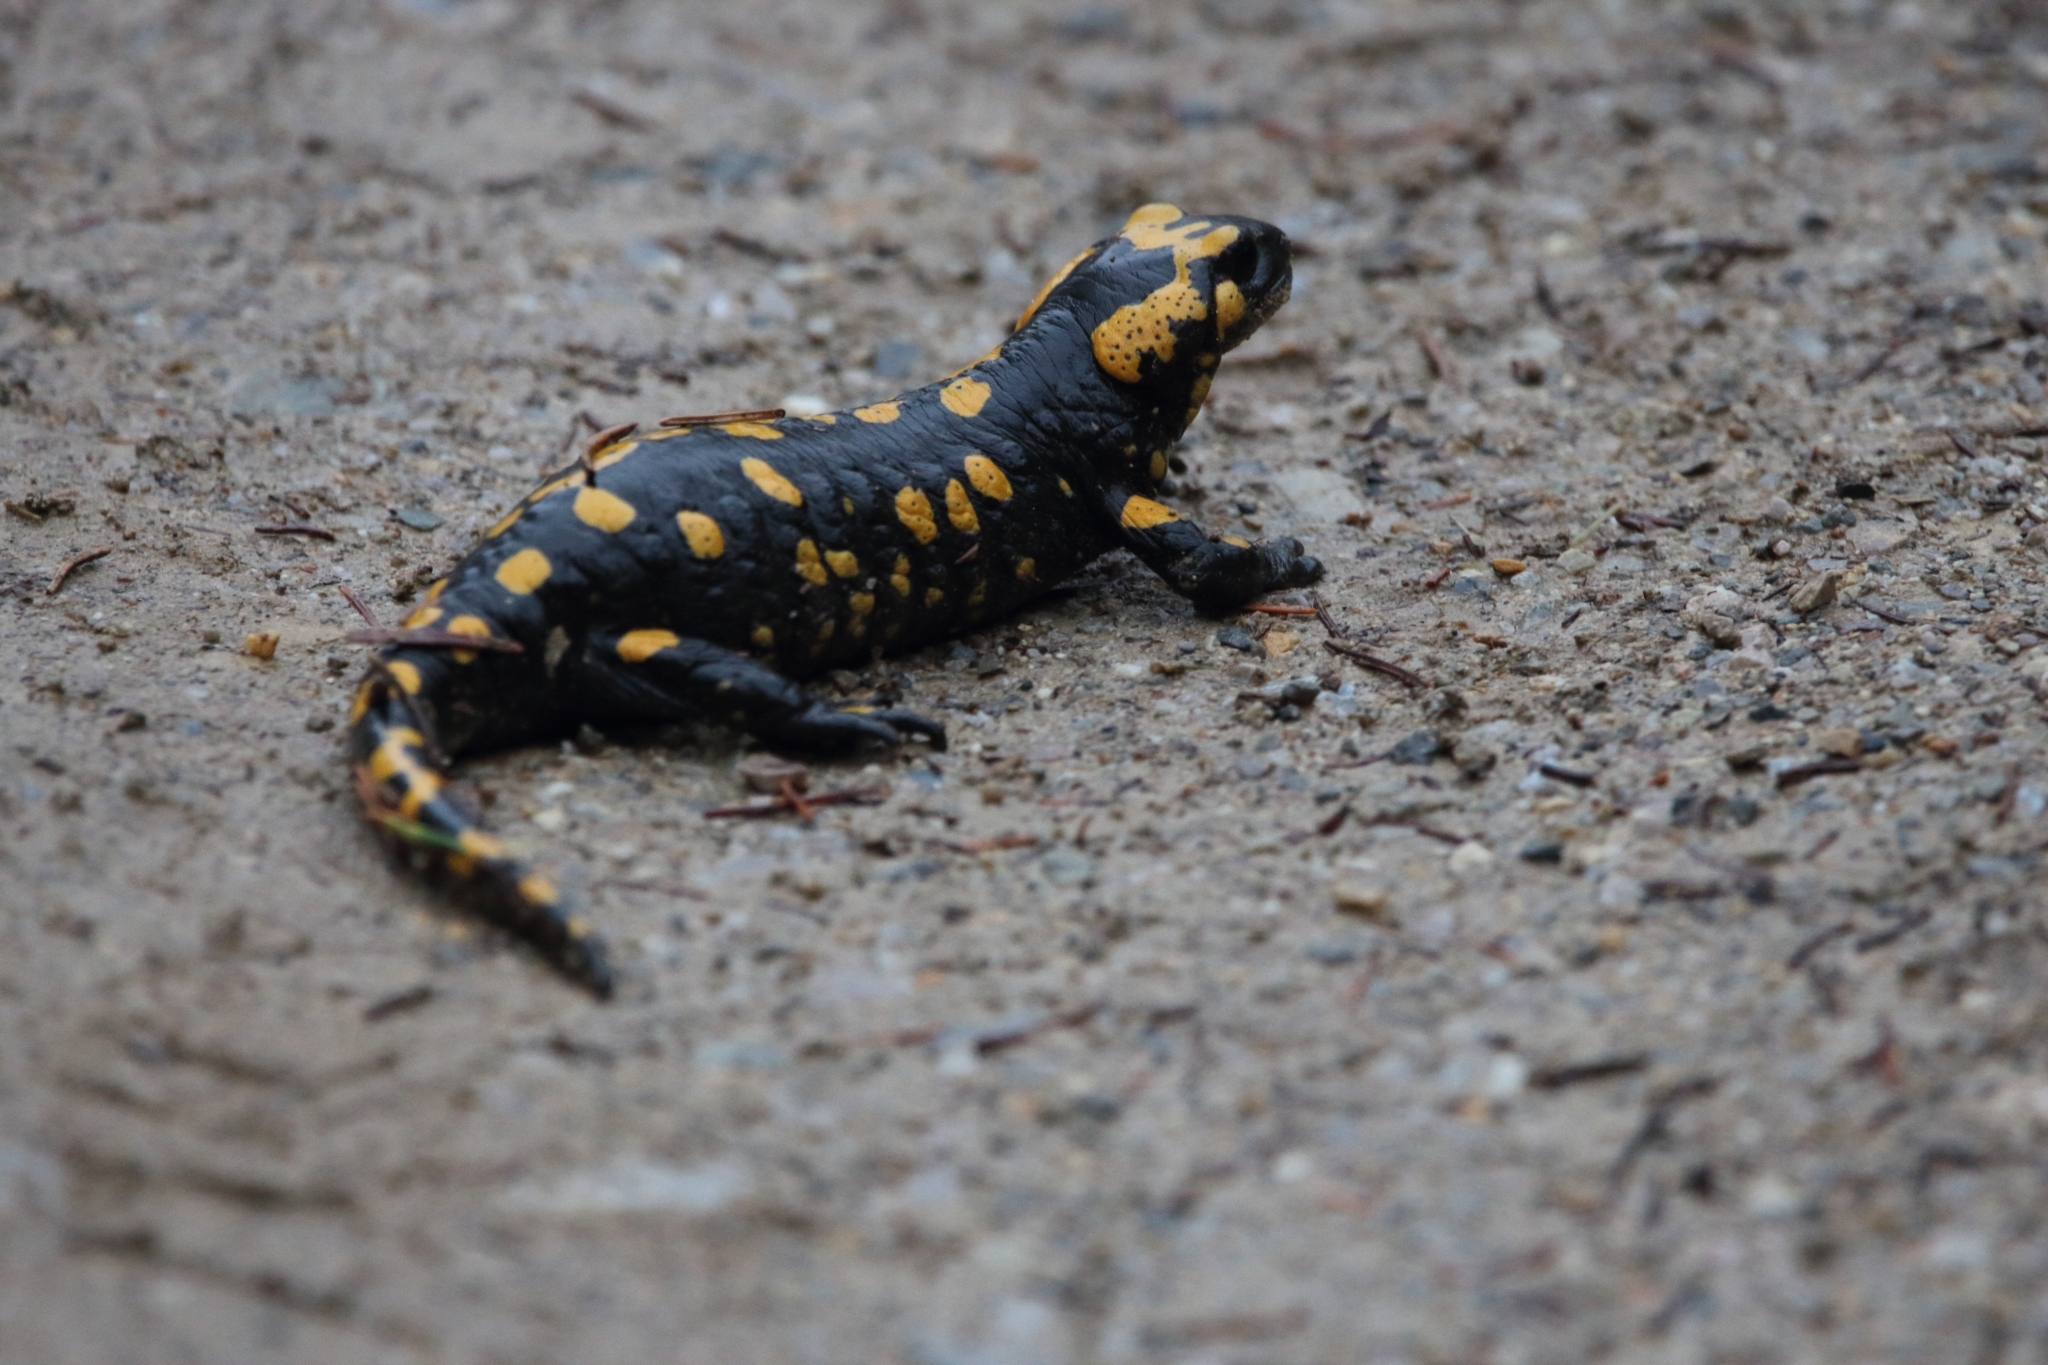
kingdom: Animalia
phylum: Chordata
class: Amphibia
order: Caudata
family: Salamandridae
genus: Salamandra
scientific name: Salamandra salamandra
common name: Fire salamander
